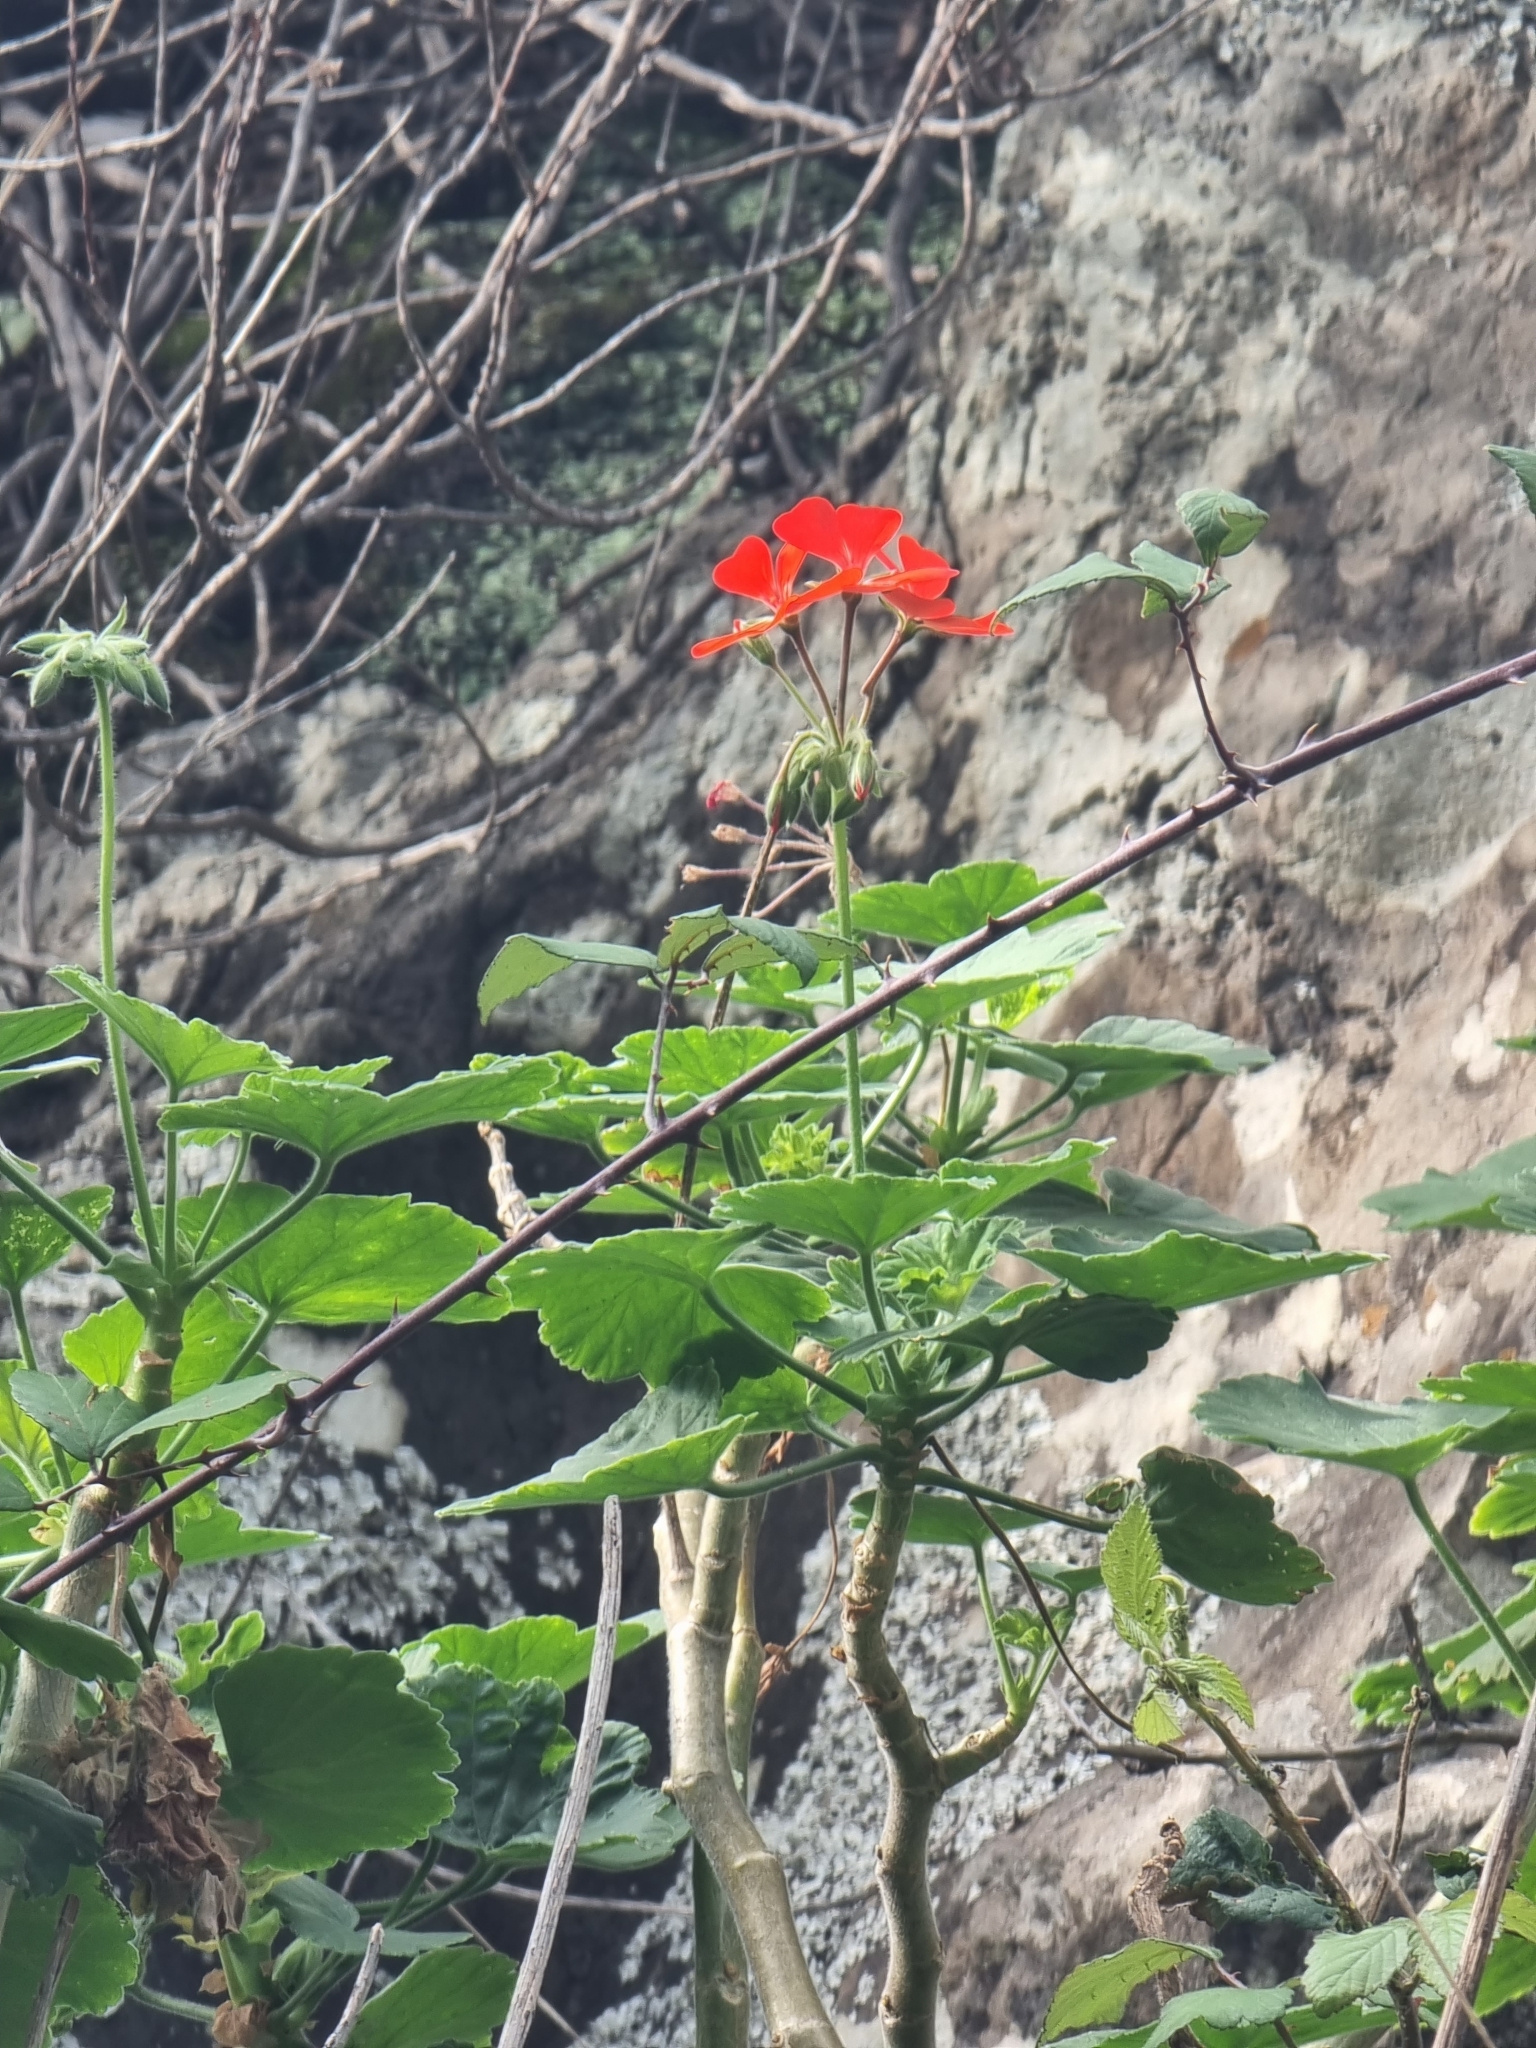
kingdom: Plantae
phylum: Tracheophyta
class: Magnoliopsida
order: Geraniales
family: Geraniaceae
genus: Pelargonium
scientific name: Pelargonium hybridum
